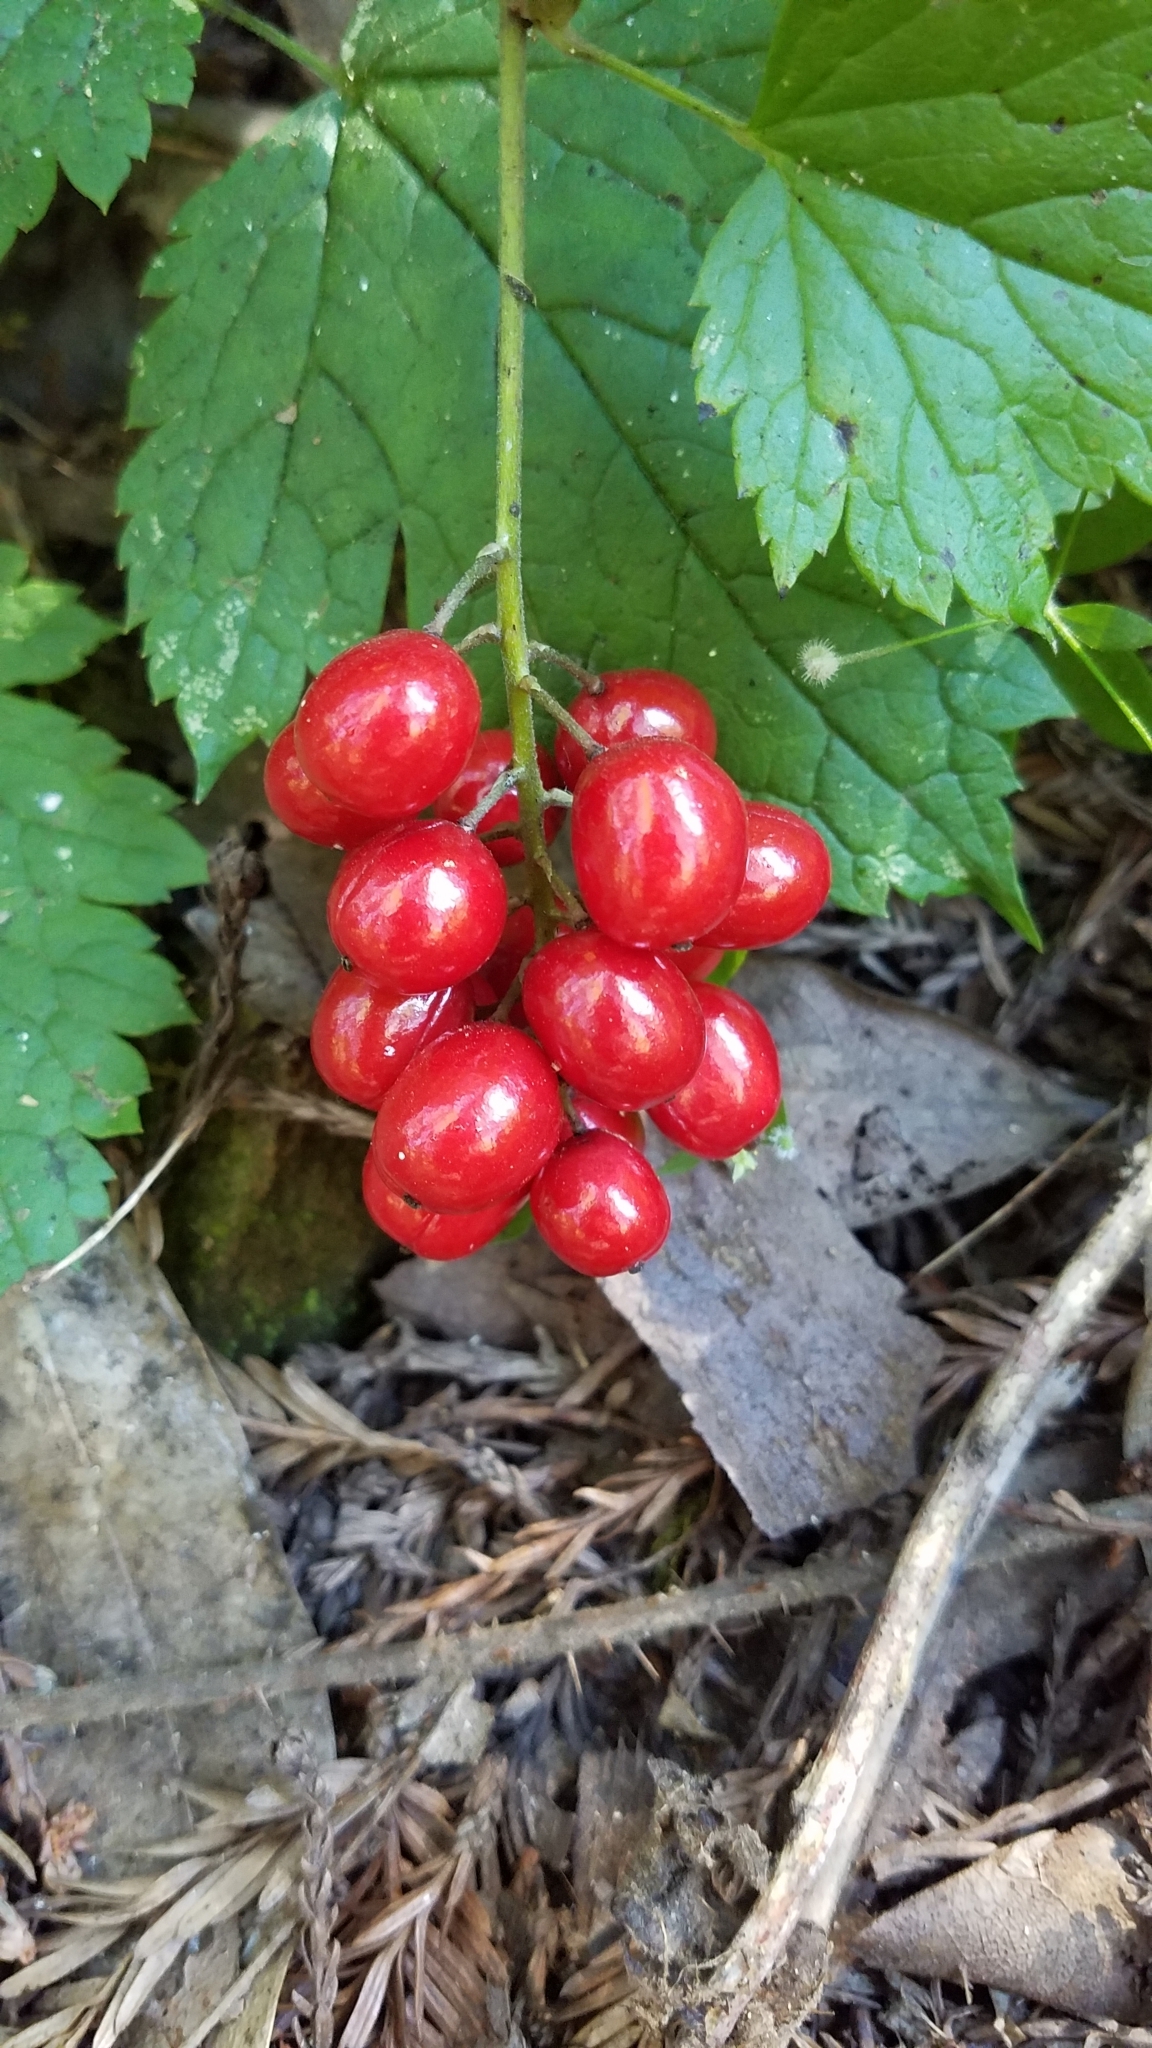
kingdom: Plantae
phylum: Tracheophyta
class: Magnoliopsida
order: Ranunculales
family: Ranunculaceae
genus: Actaea
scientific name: Actaea rubra
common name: Red baneberry
